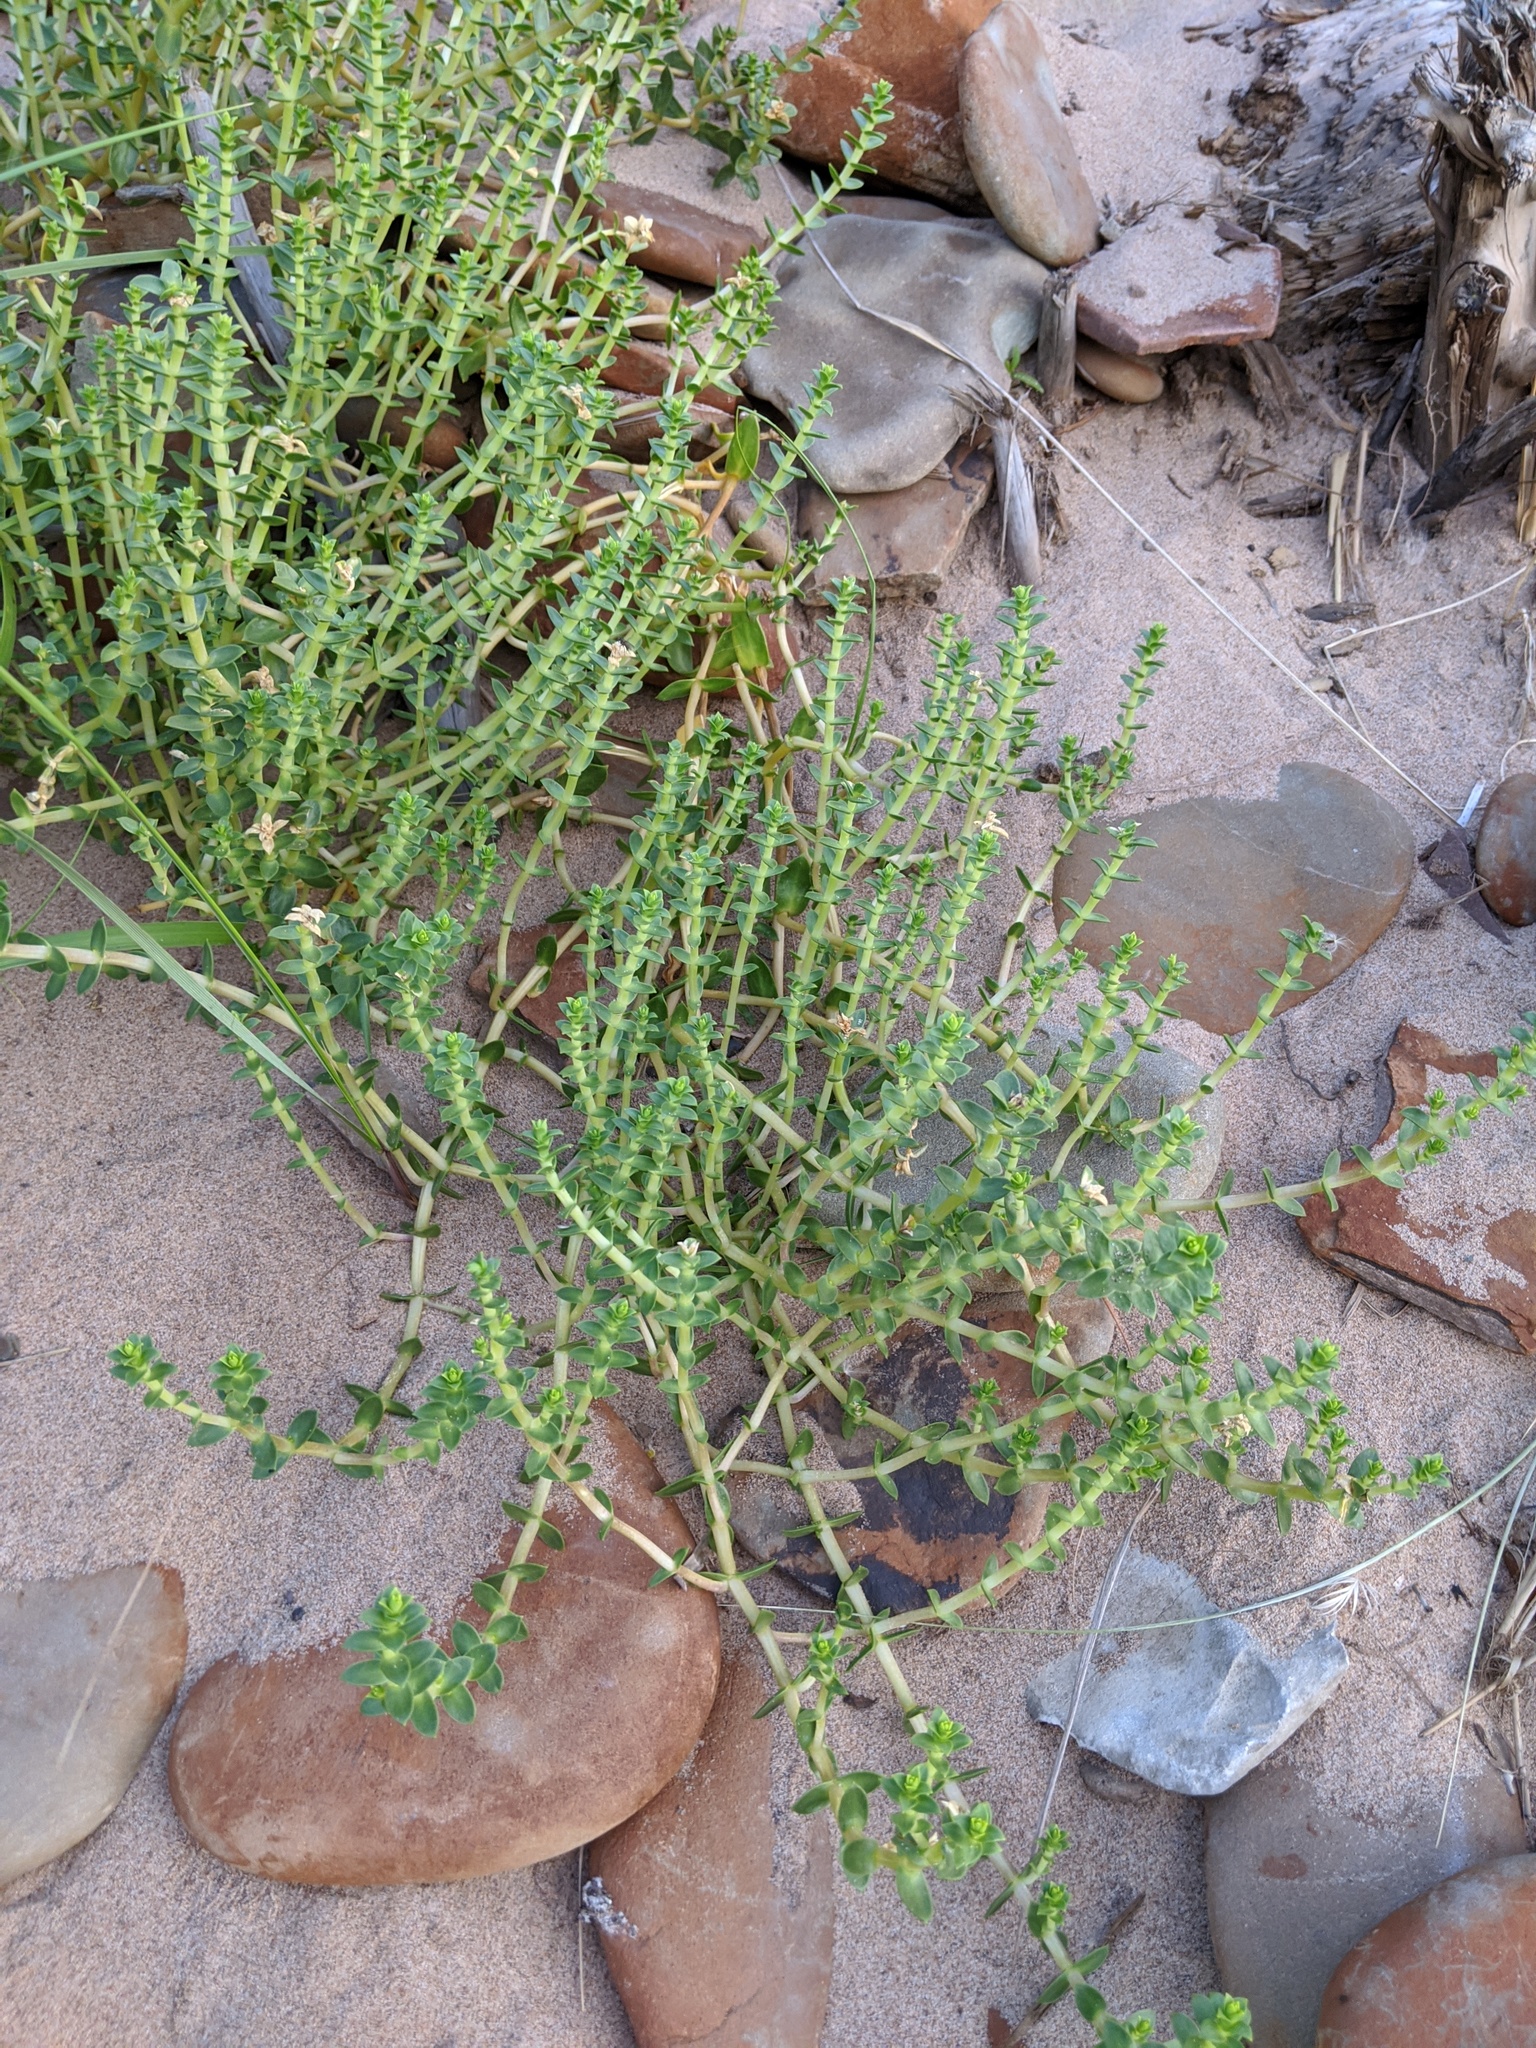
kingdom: Plantae
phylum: Tracheophyta
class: Magnoliopsida
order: Caryophyllales
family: Caryophyllaceae
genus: Honckenya
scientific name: Honckenya peploides
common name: Sea sandwort
